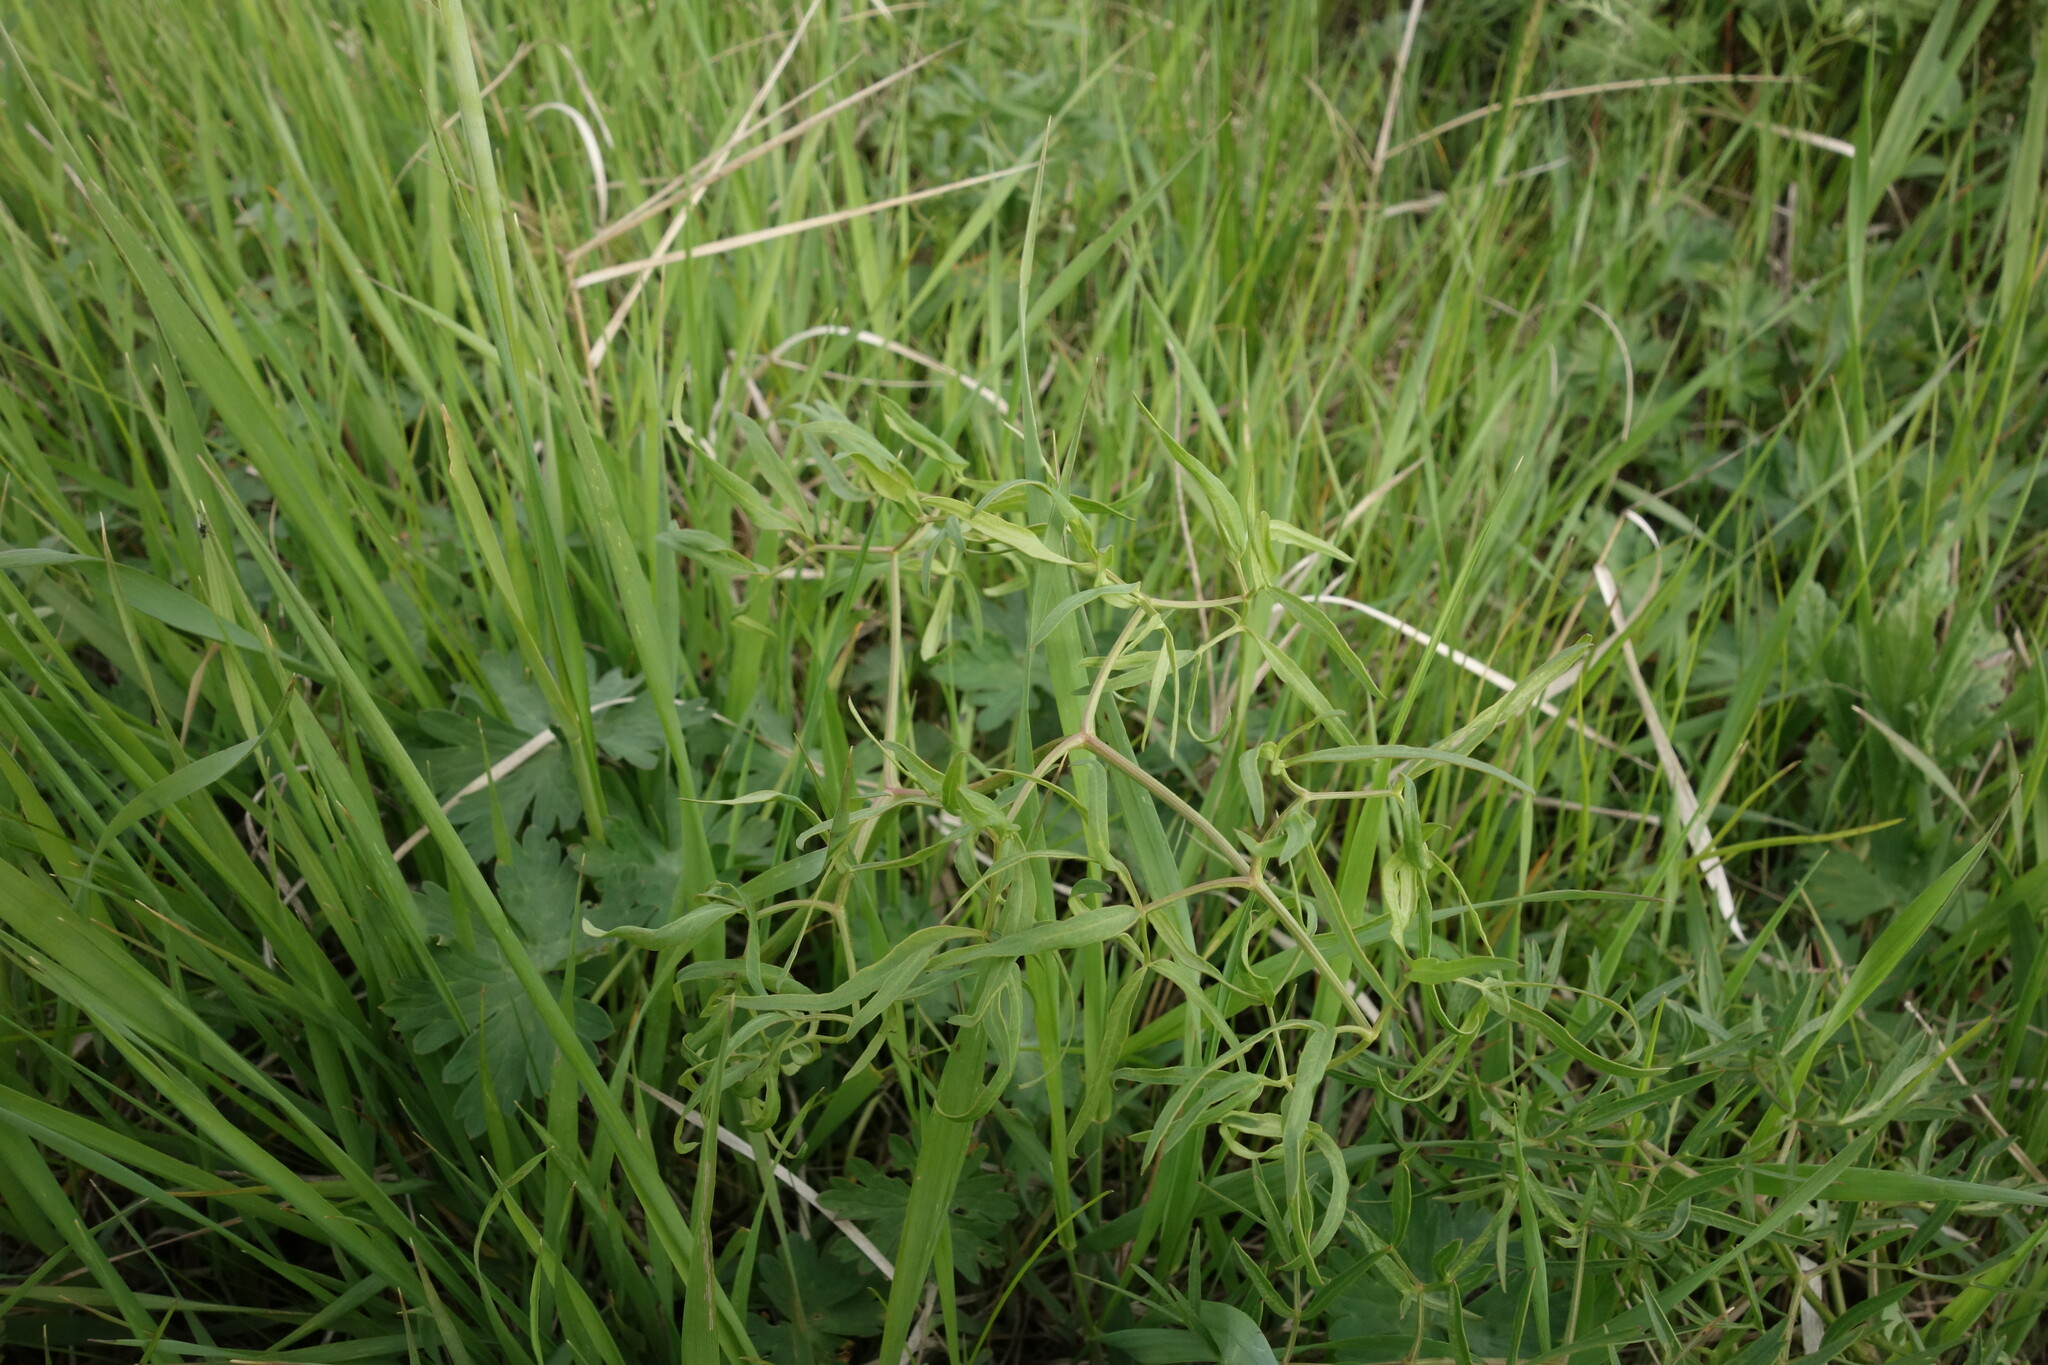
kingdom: Plantae
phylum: Tracheophyta
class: Magnoliopsida
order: Apiales
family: Apiaceae
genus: Cenolophium
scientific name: Cenolophium fischeri
